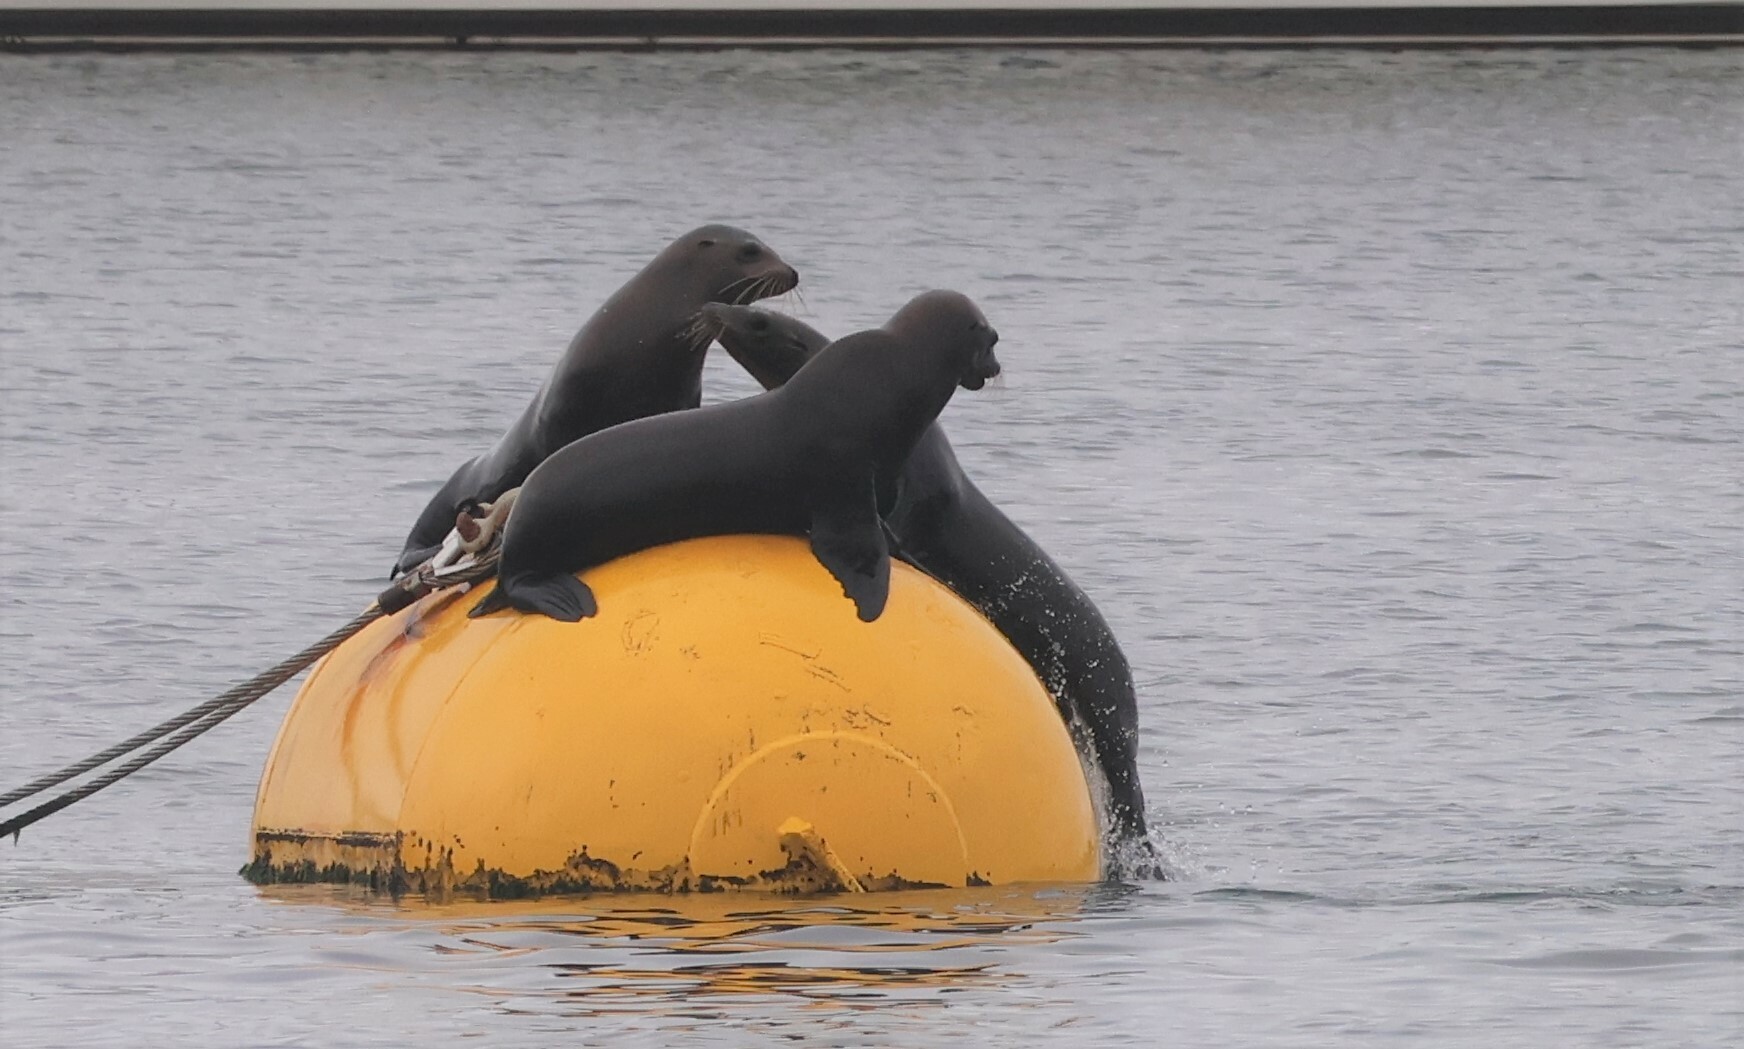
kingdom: Animalia
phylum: Chordata
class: Mammalia
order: Carnivora
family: Otariidae
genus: Zalophus
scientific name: Zalophus californianus
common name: California sea lion
